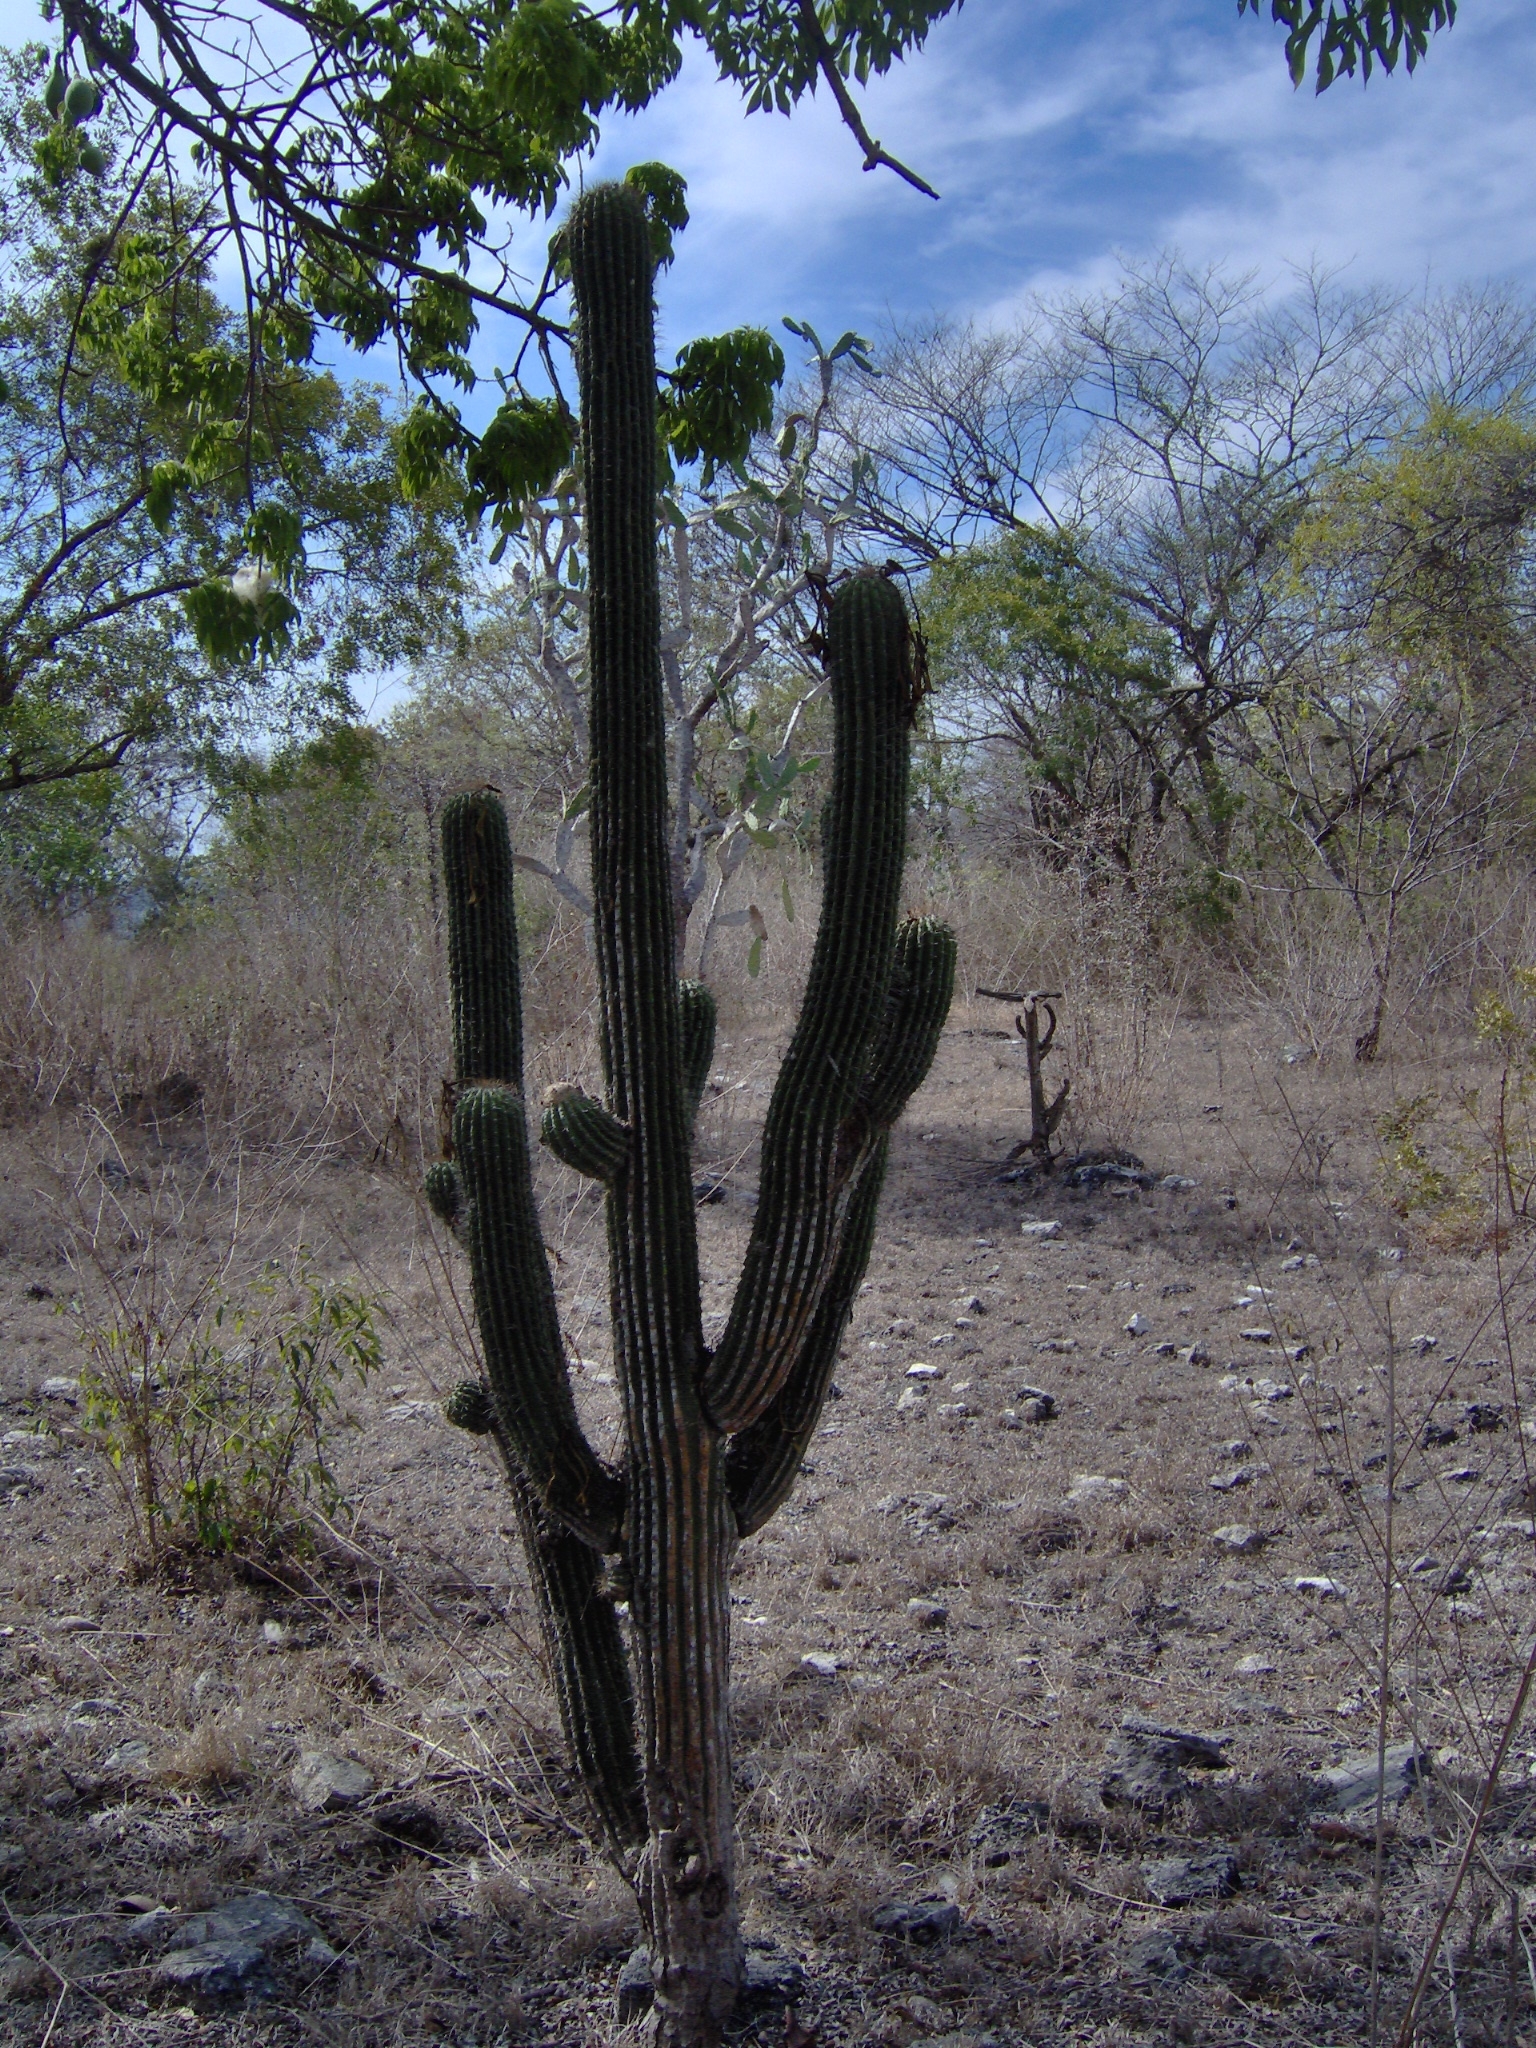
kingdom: Plantae
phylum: Tracheophyta
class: Magnoliopsida
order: Caryophyllales
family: Cactaceae
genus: Cephalocereus
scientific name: Cephalocereus scoparius
